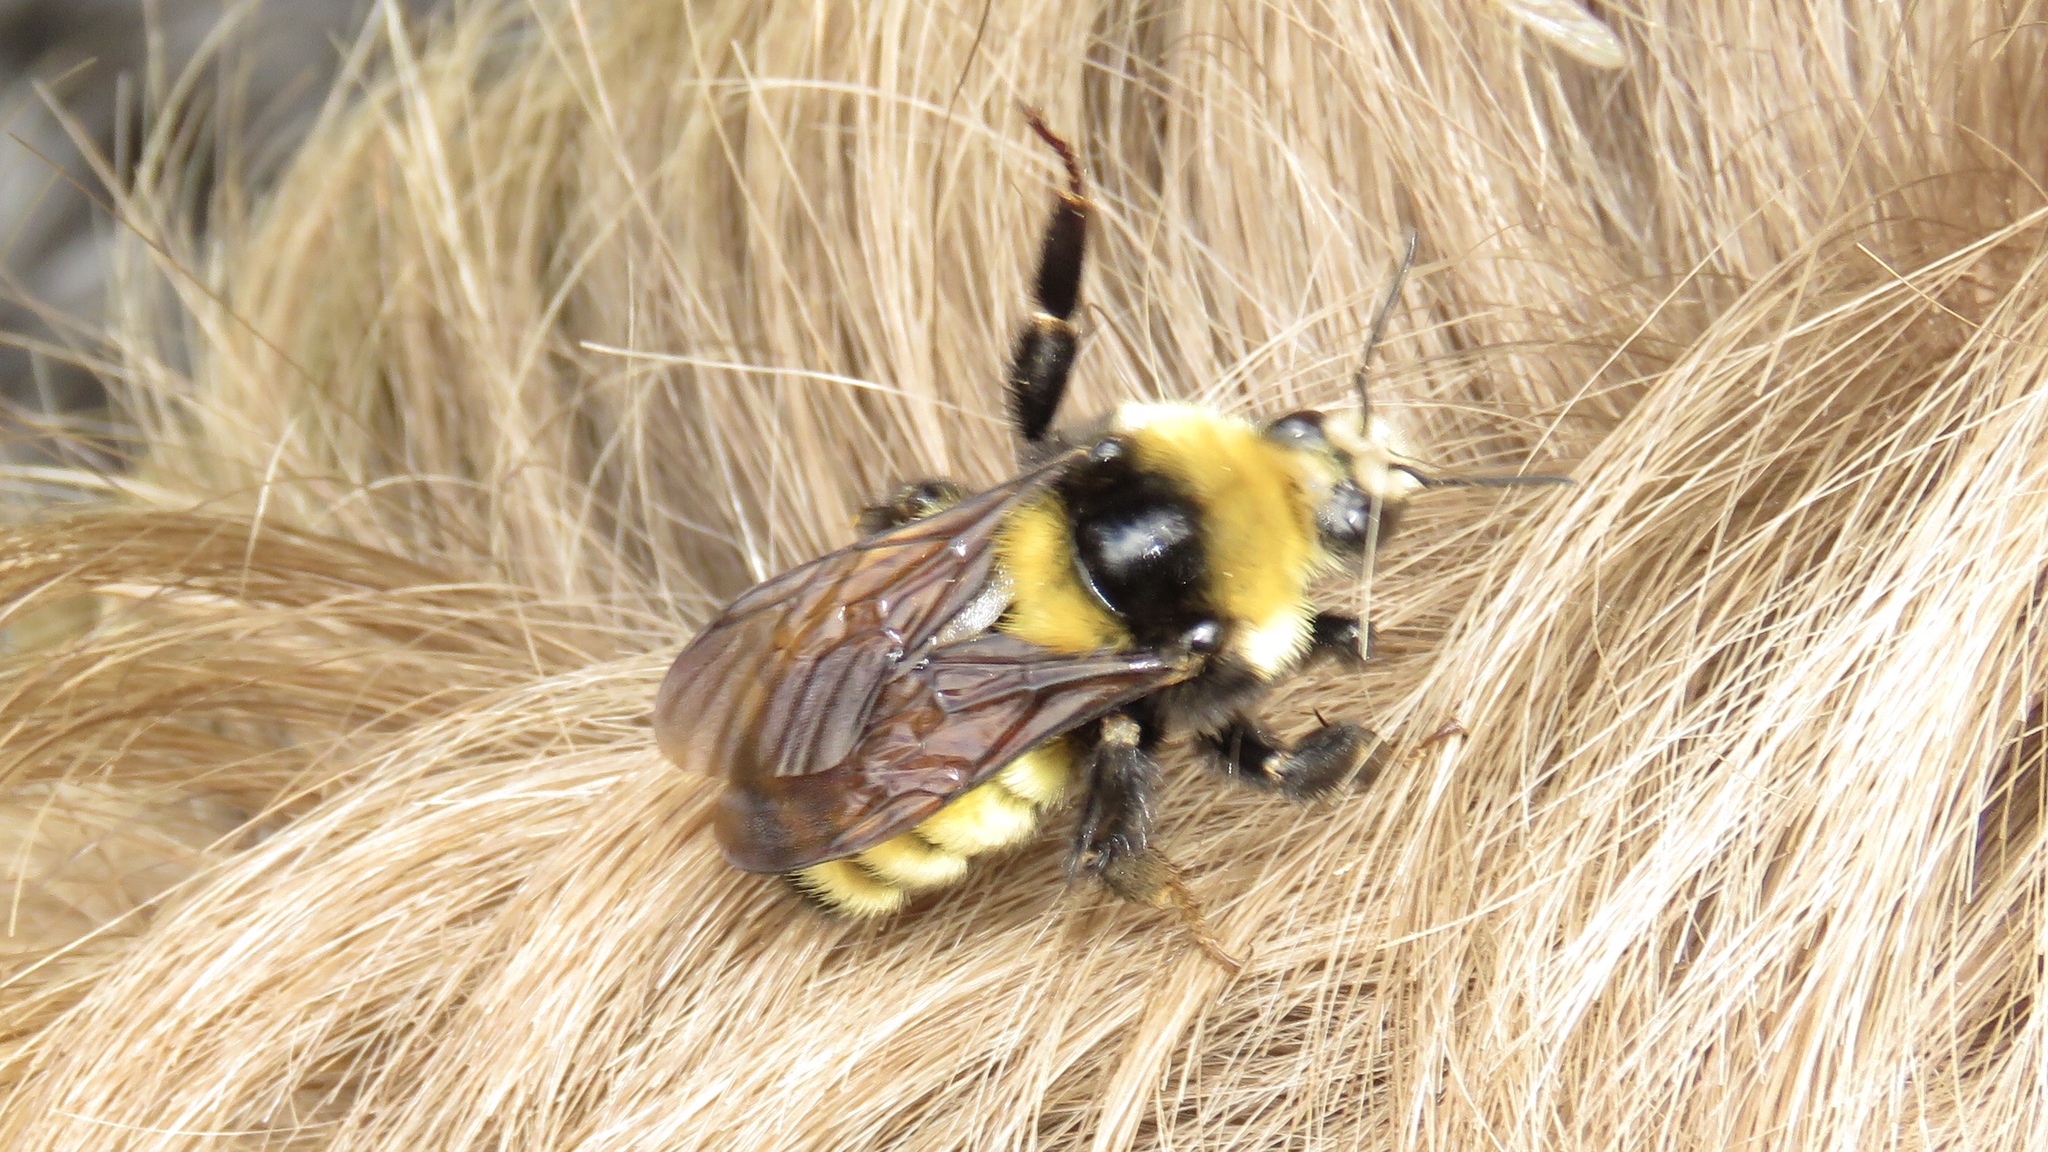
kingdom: Animalia
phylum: Arthropoda
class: Insecta
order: Hymenoptera
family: Apidae
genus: Bombus
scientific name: Bombus borealis
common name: Northern amber bumble bee
